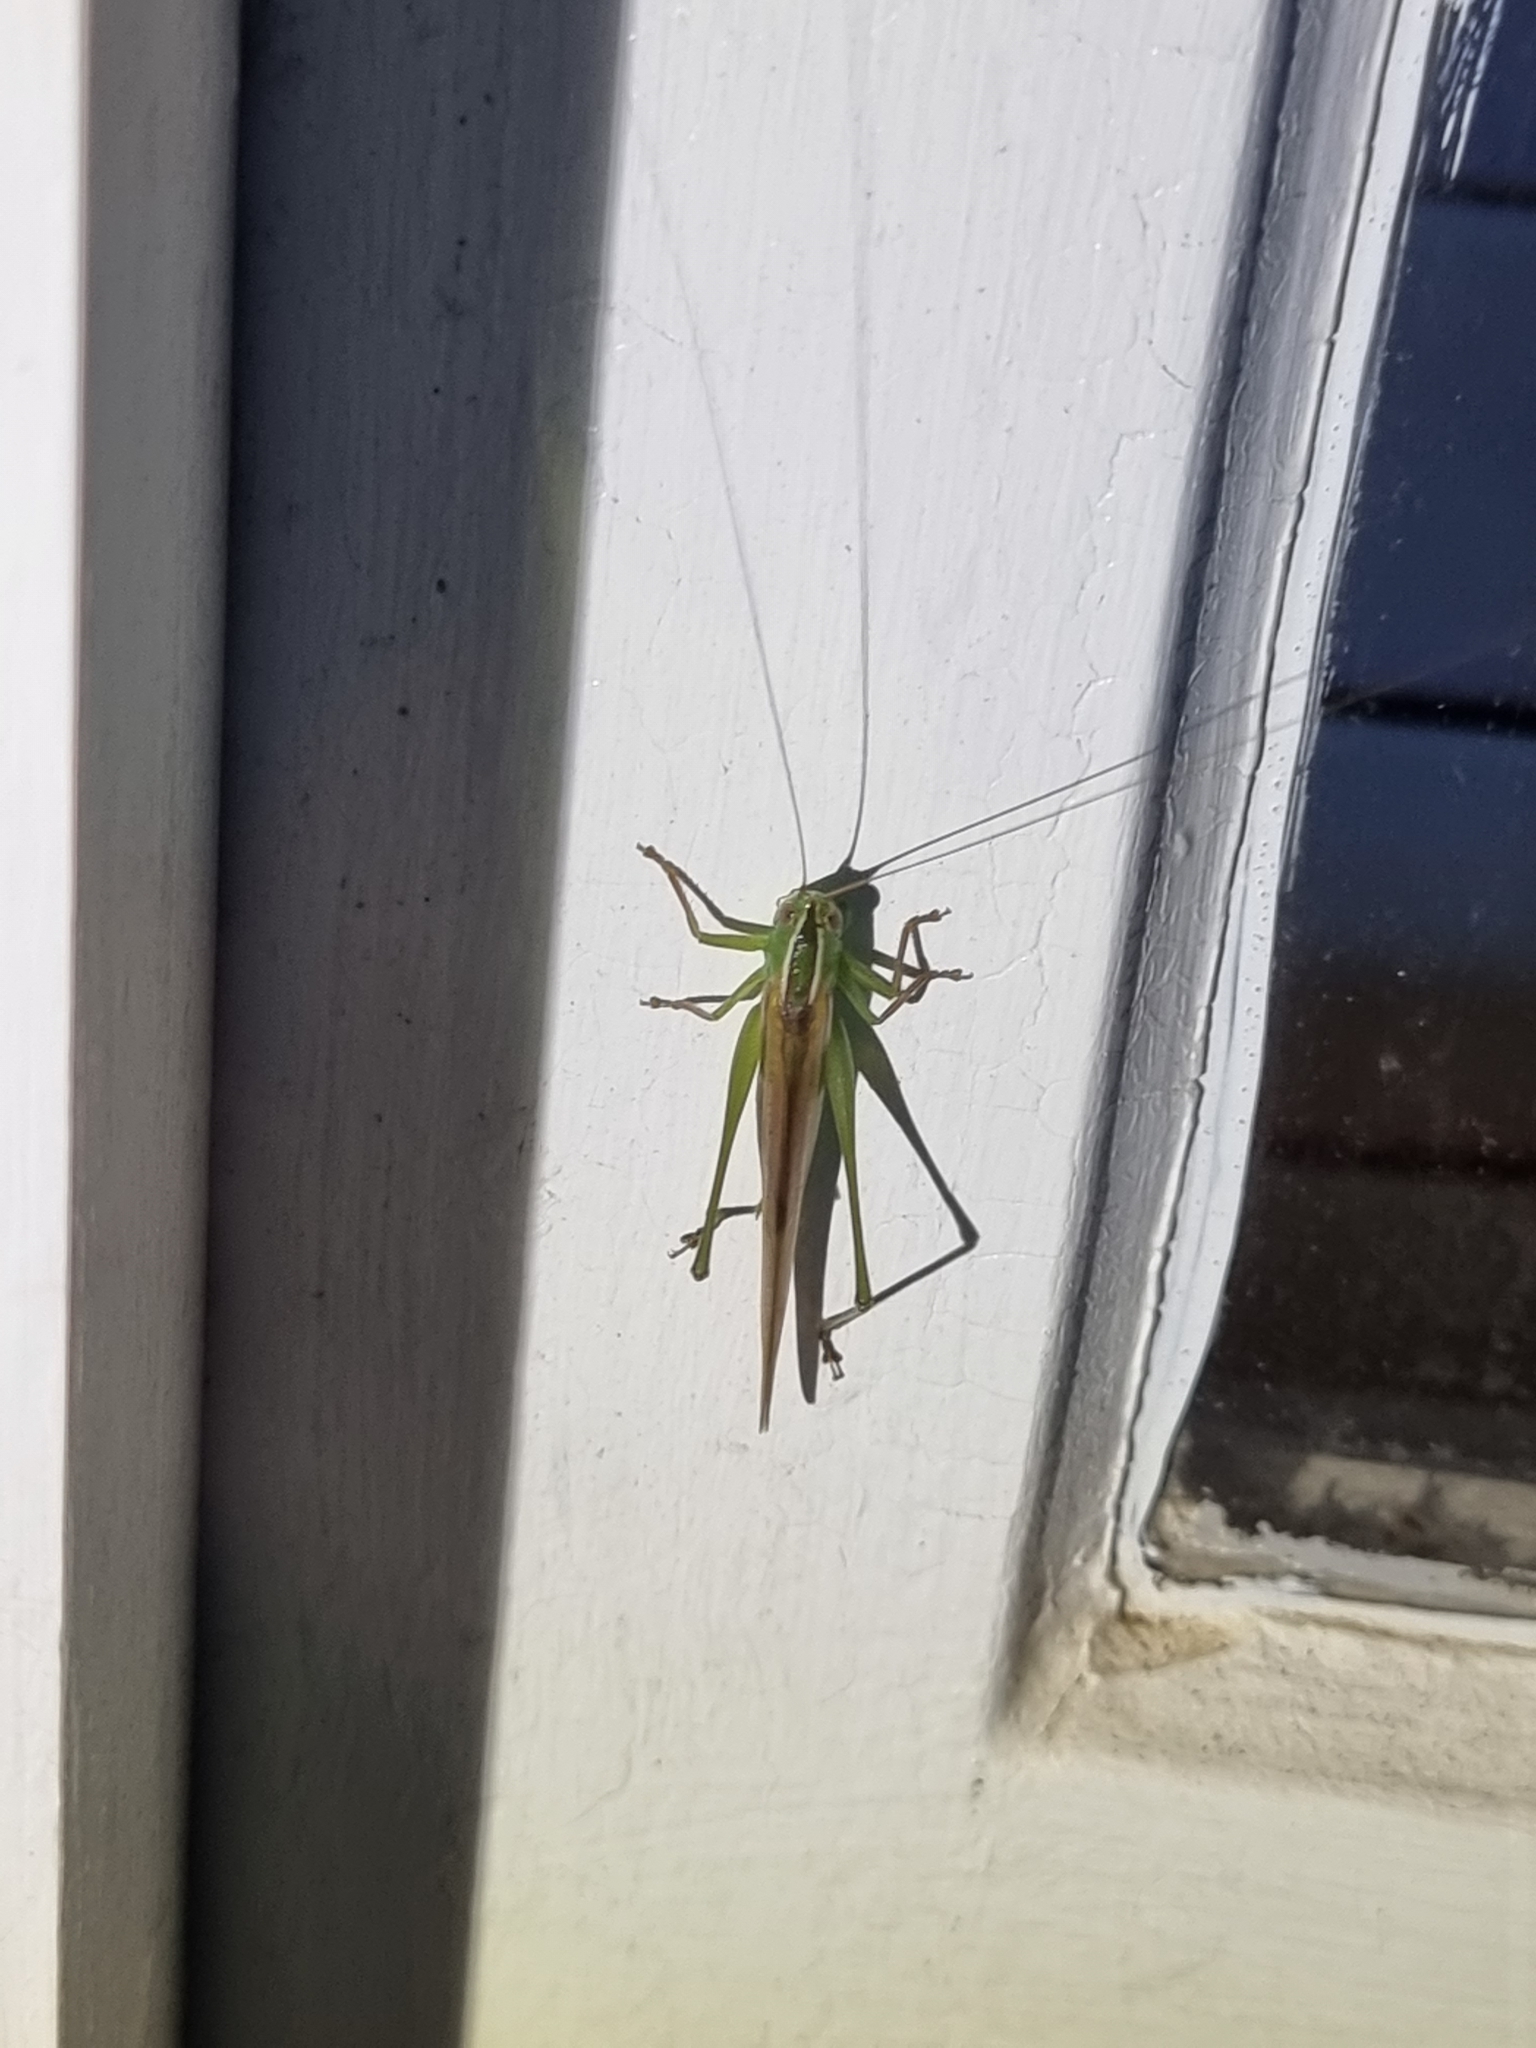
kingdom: Animalia
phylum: Arthropoda
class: Insecta
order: Orthoptera
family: Tettigoniidae
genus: Conocephalus
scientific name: Conocephalus upoluensis
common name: Upolu meadow katydid
